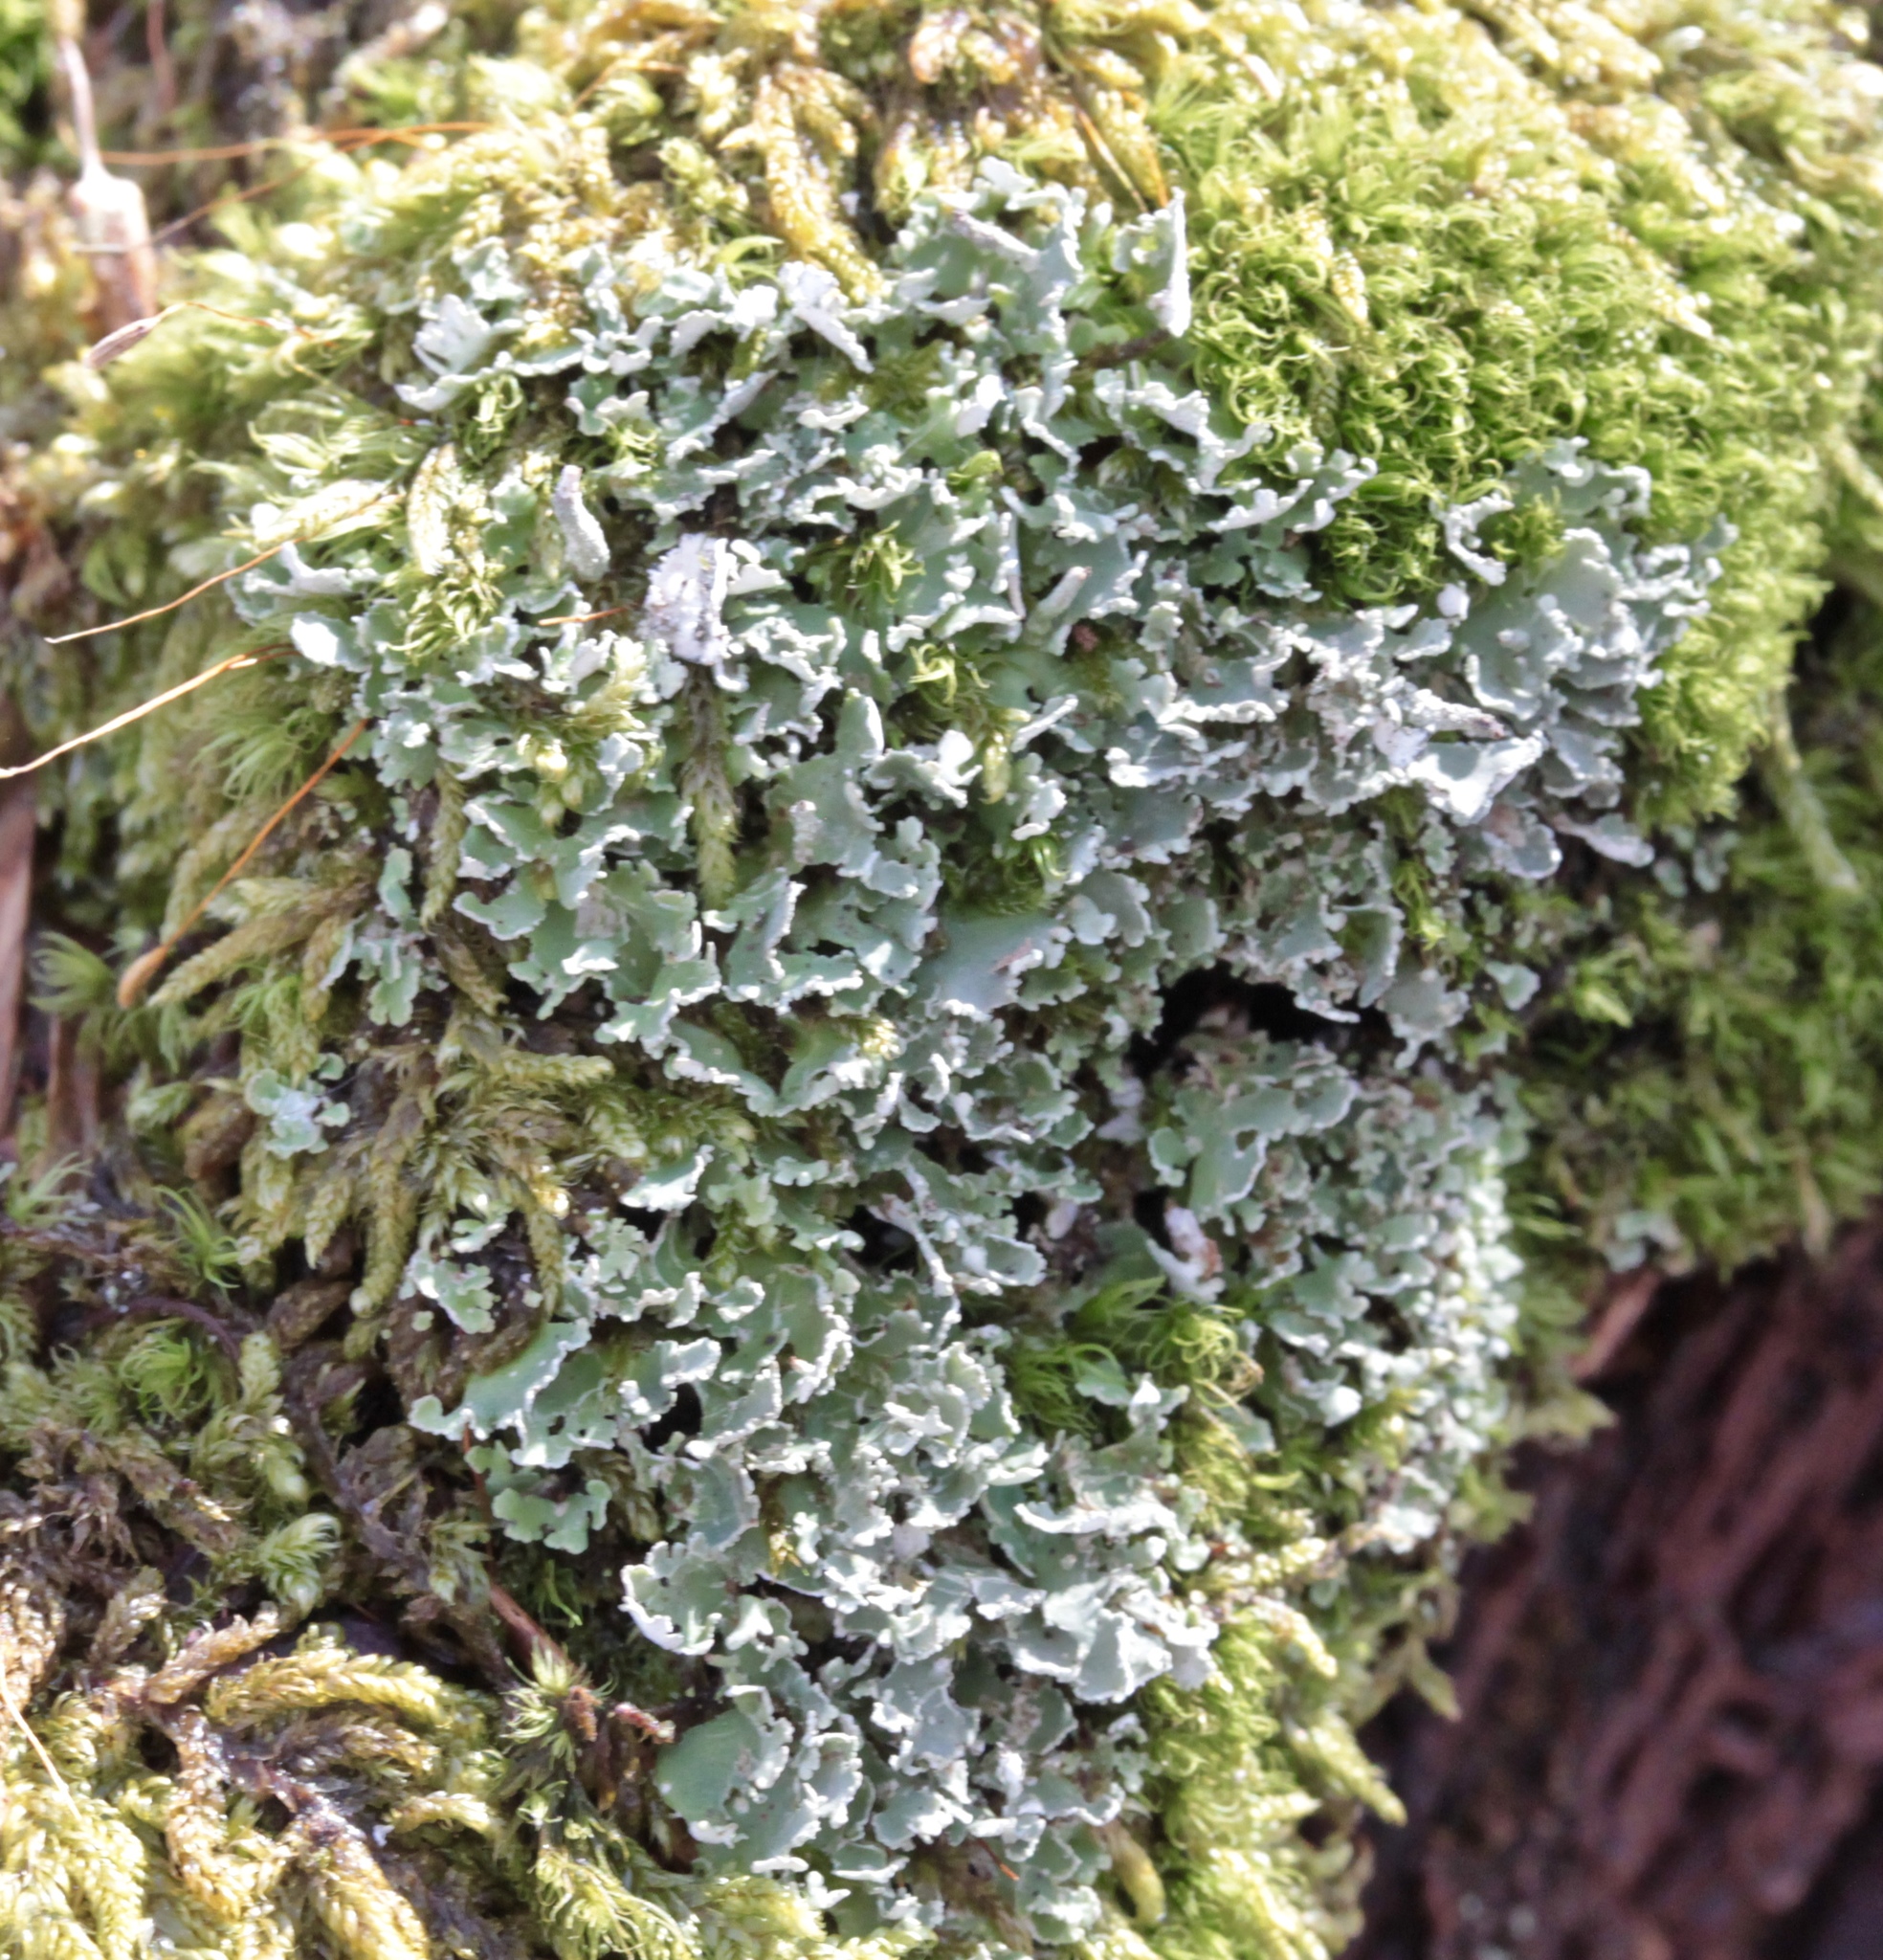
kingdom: Fungi
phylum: Ascomycota
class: Lecanoromycetes
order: Lecanorales
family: Cladoniaceae
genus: Cladonia
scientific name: Cladonia coniocraea
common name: Common powderhorn
